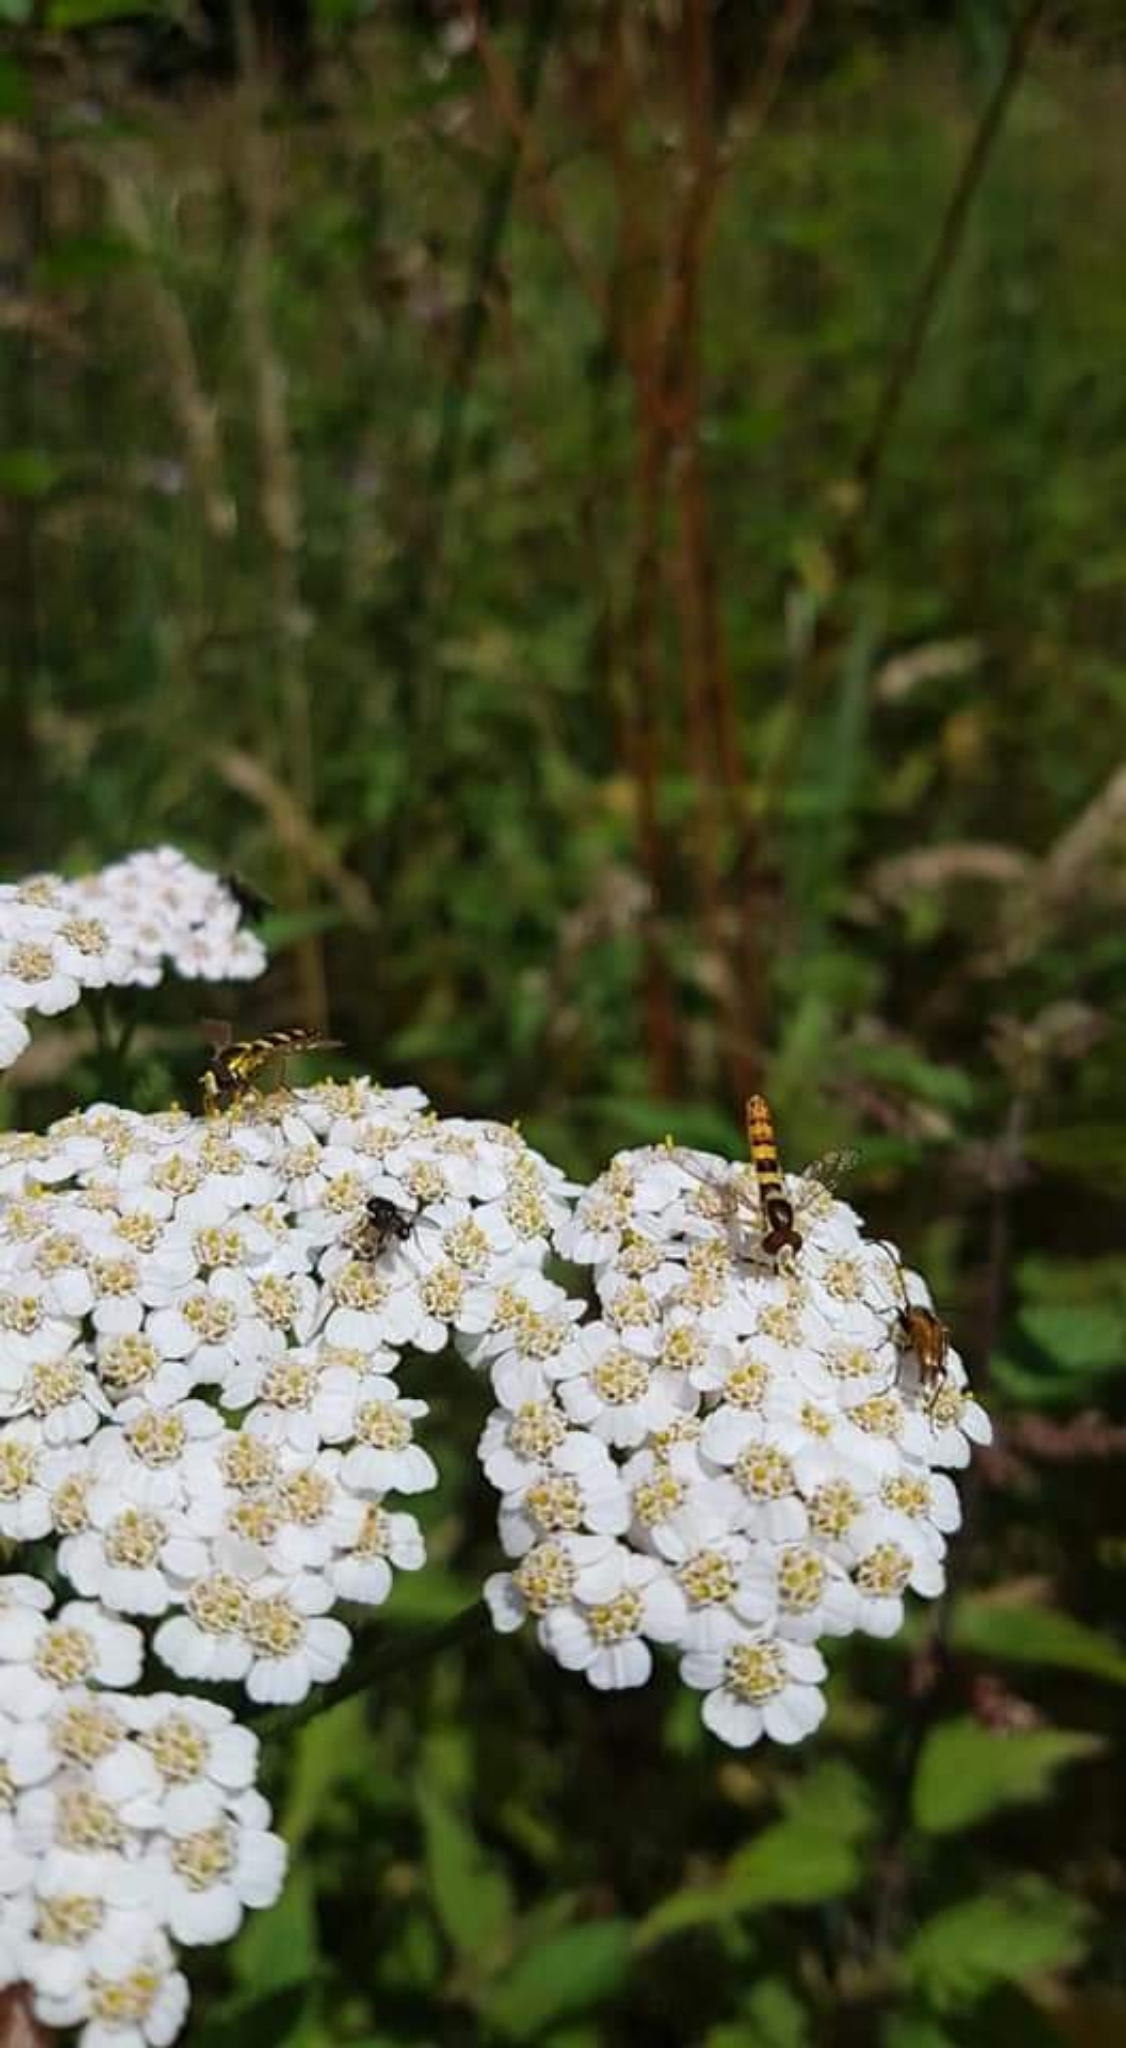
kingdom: Animalia
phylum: Arthropoda
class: Insecta
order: Diptera
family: Syrphidae
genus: Sphaerophoria
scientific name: Sphaerophoria scripta
